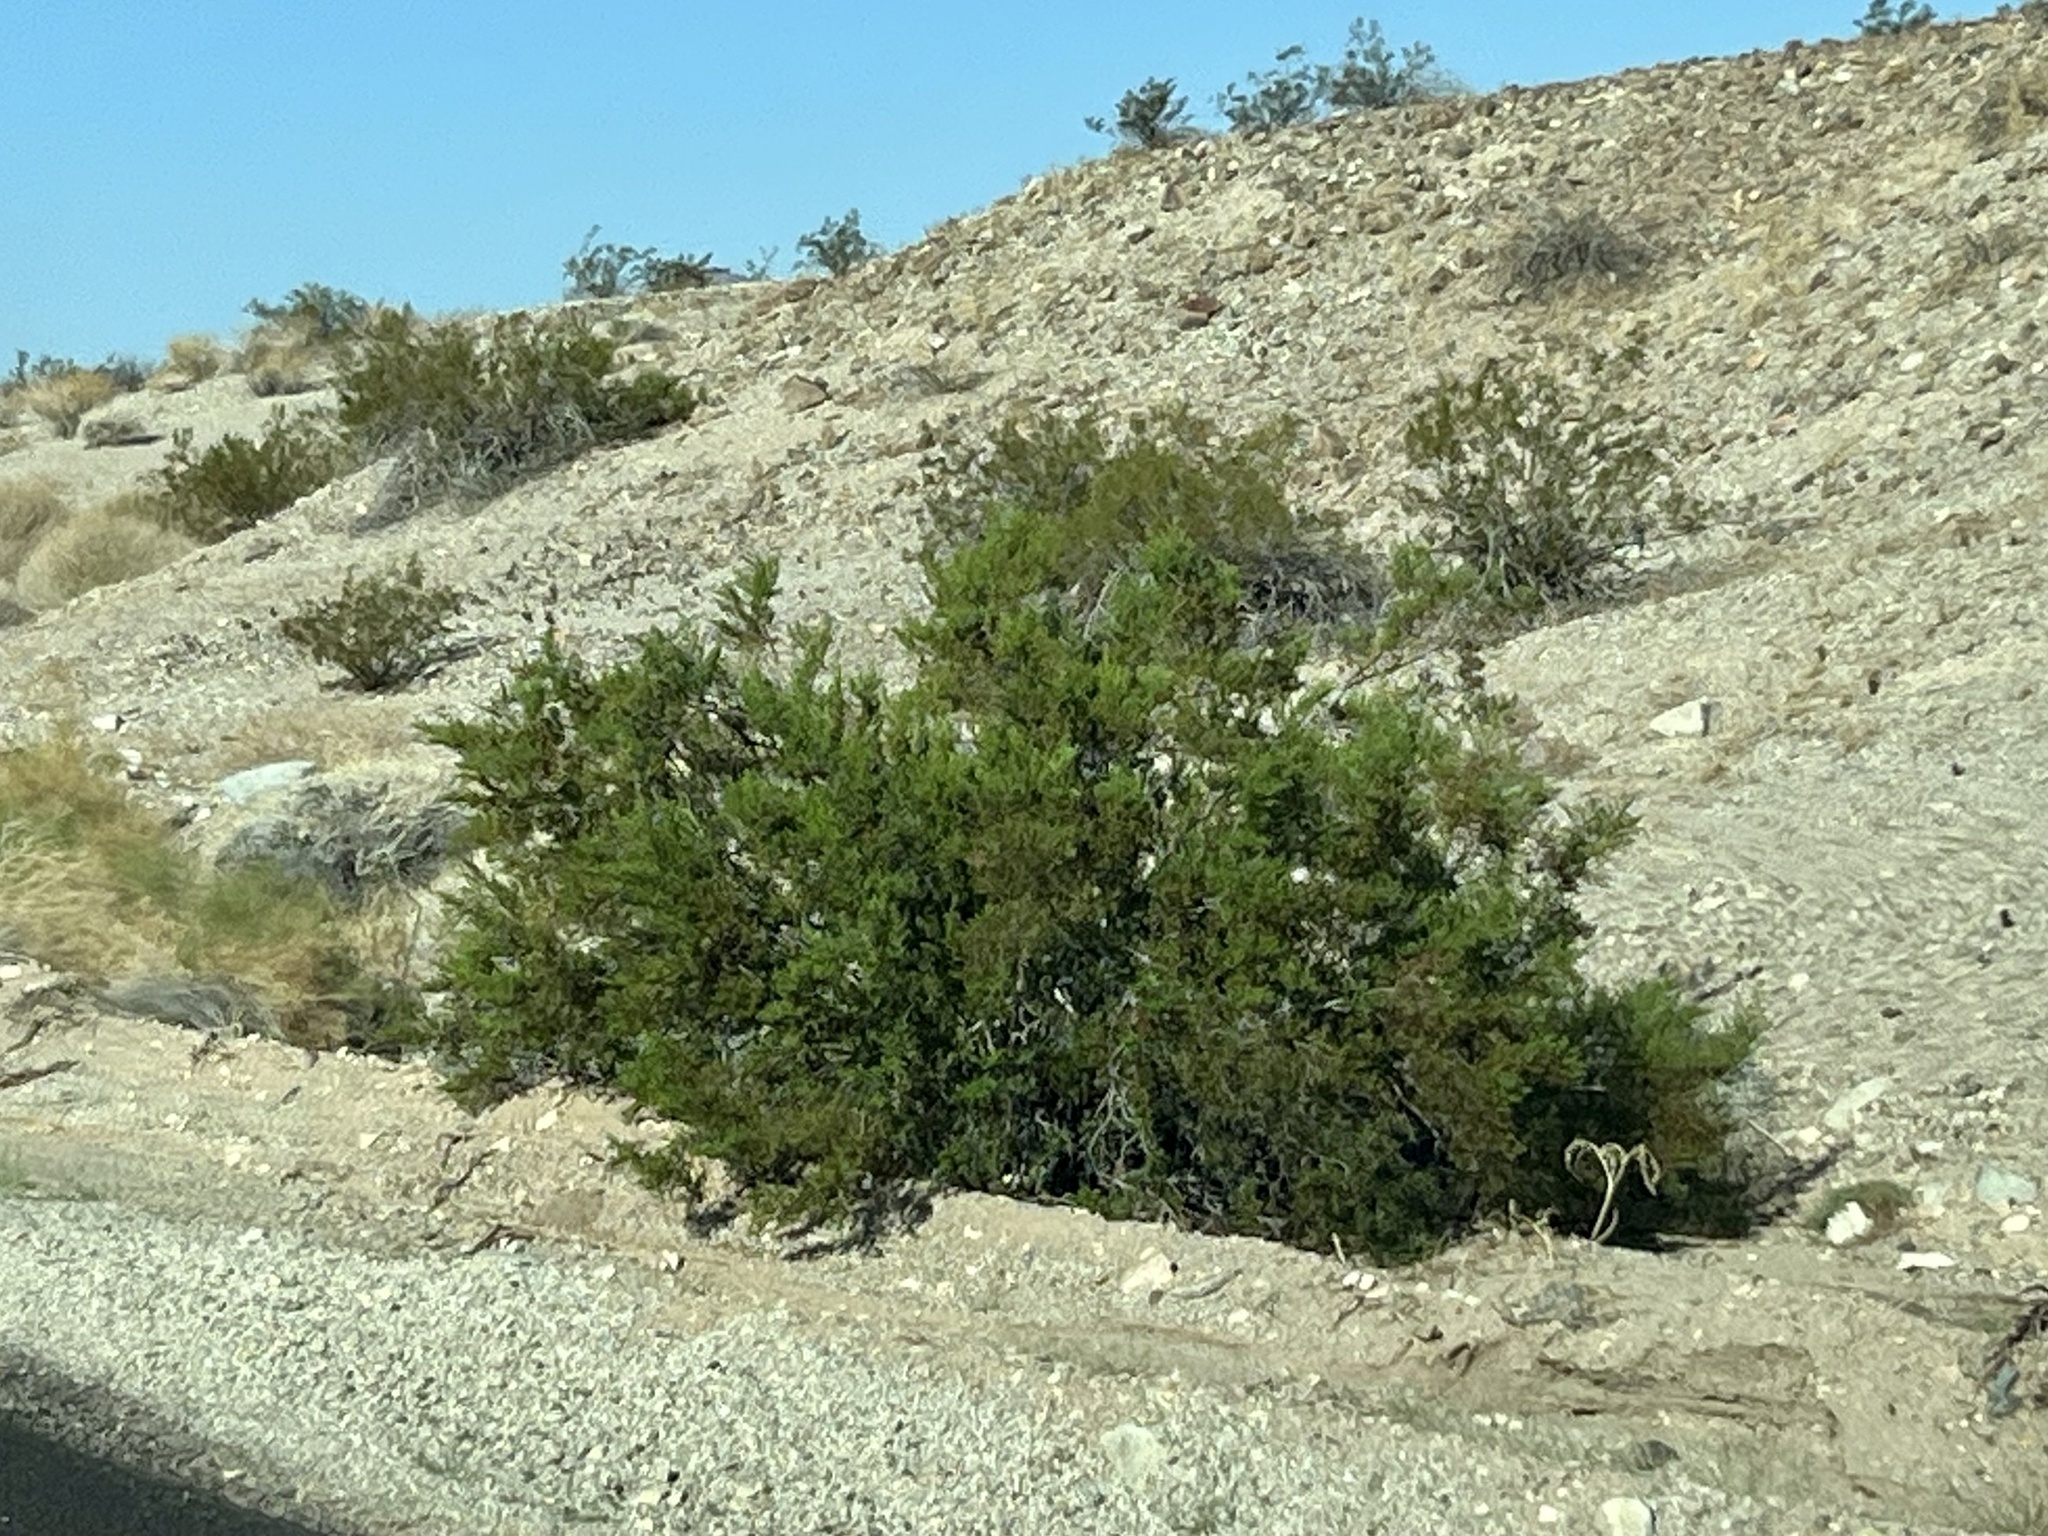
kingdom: Plantae
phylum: Tracheophyta
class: Magnoliopsida
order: Zygophyllales
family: Zygophyllaceae
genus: Larrea
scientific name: Larrea tridentata
